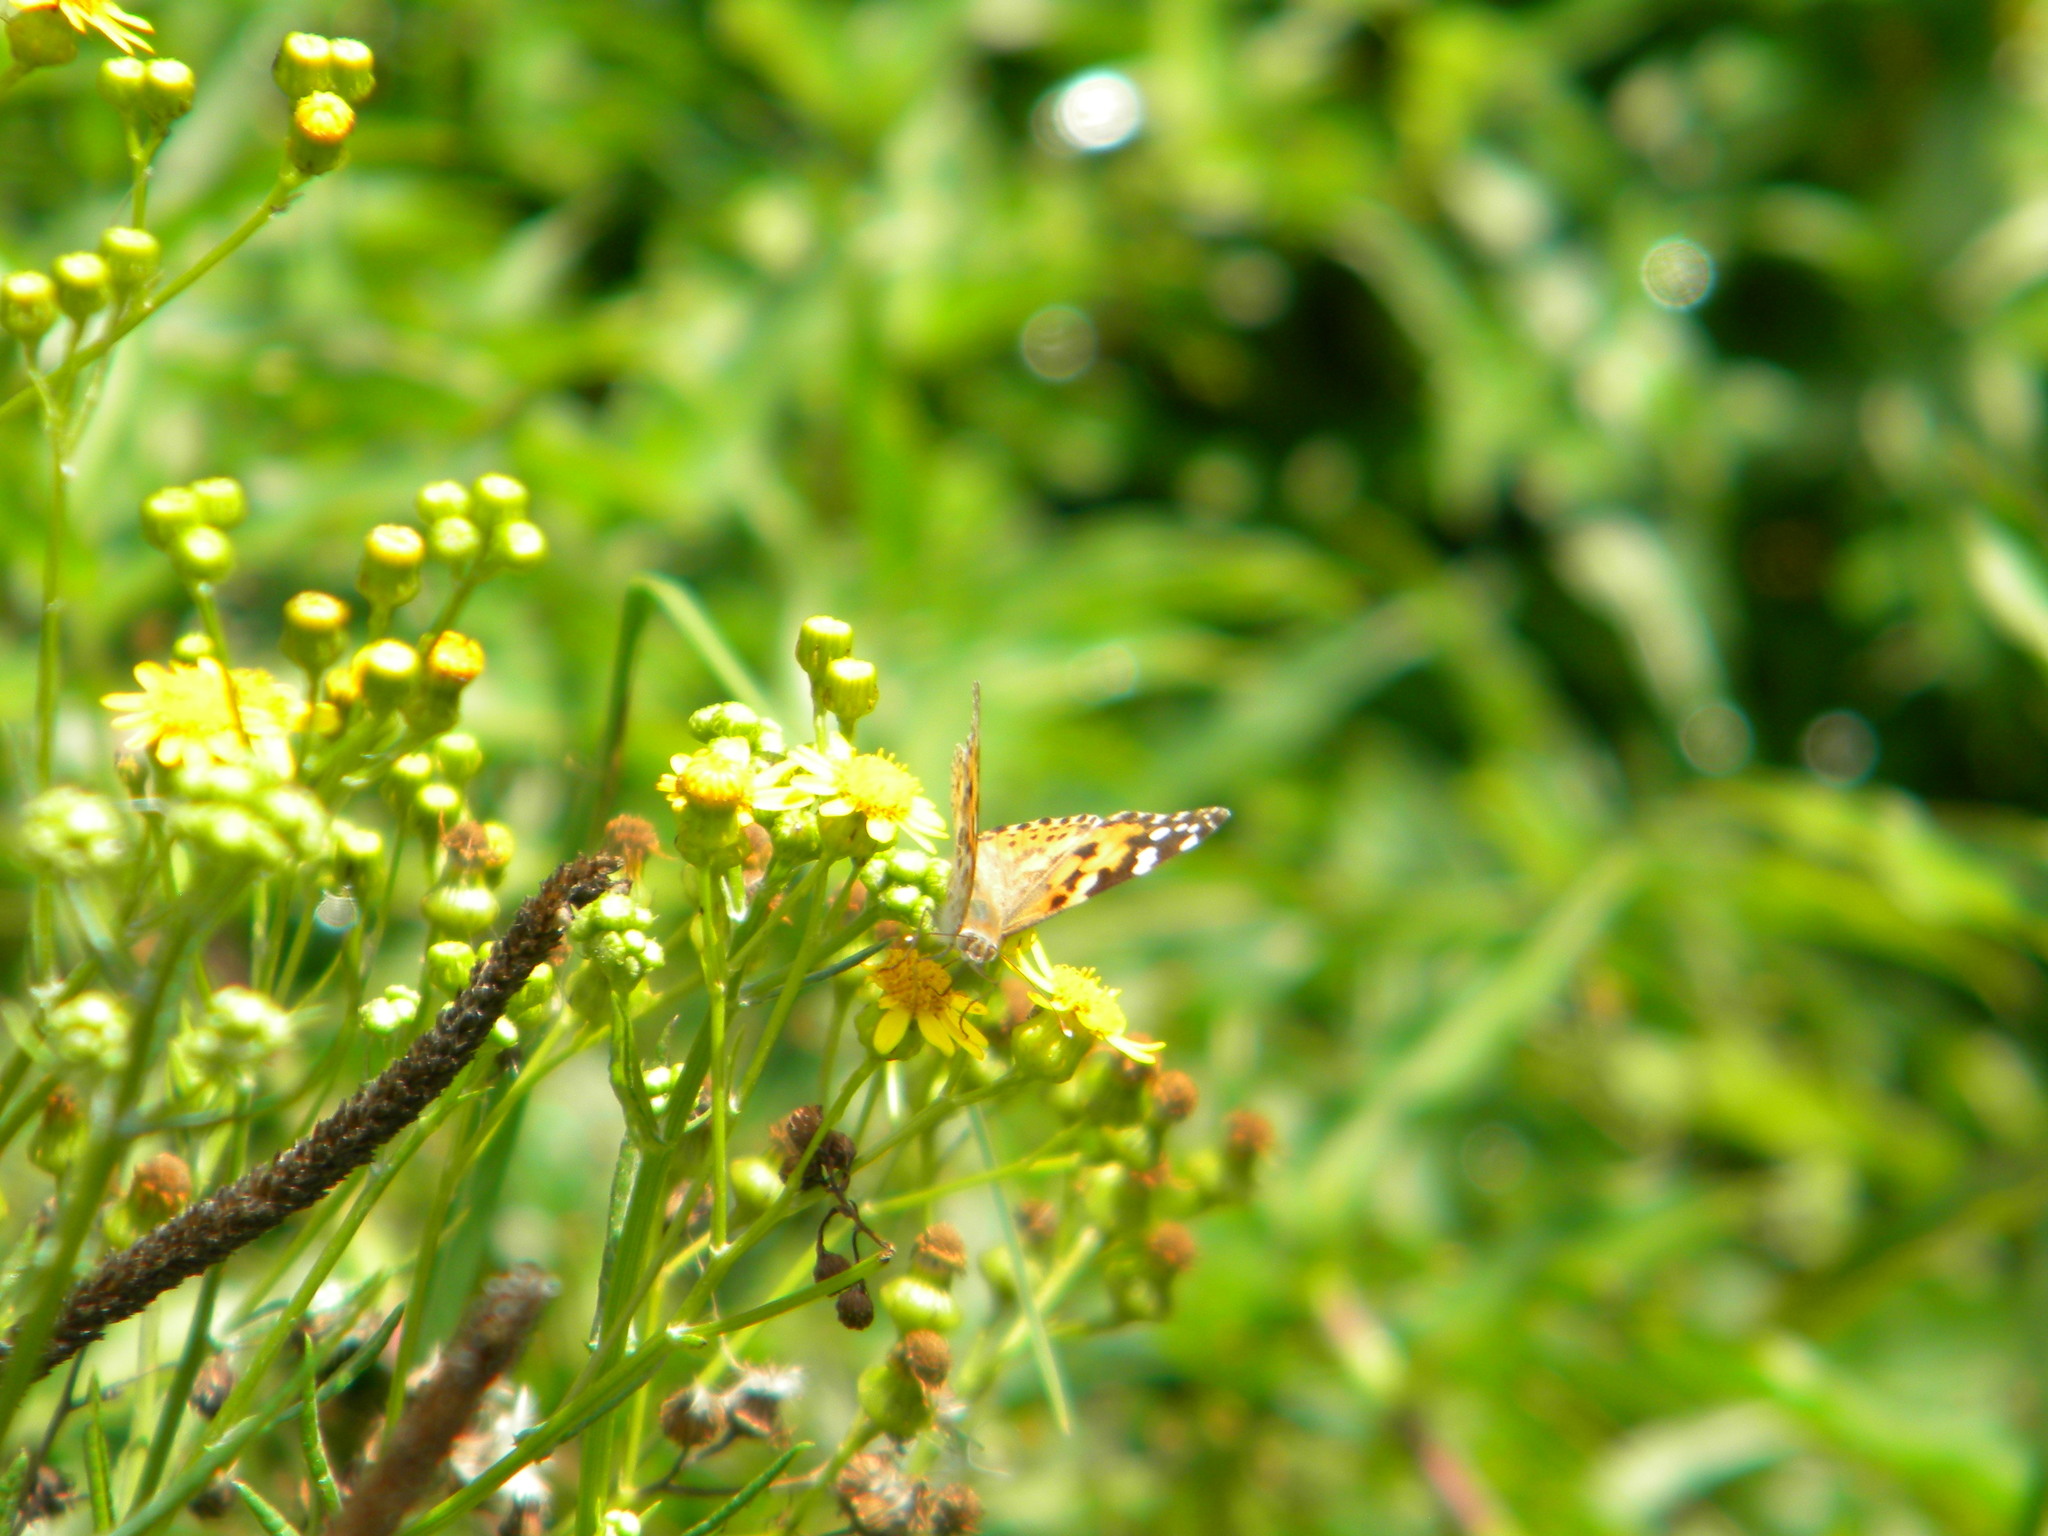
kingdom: Animalia
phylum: Arthropoda
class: Insecta
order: Lepidoptera
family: Nymphalidae
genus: Vanessa
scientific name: Vanessa cardui
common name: Painted lady
